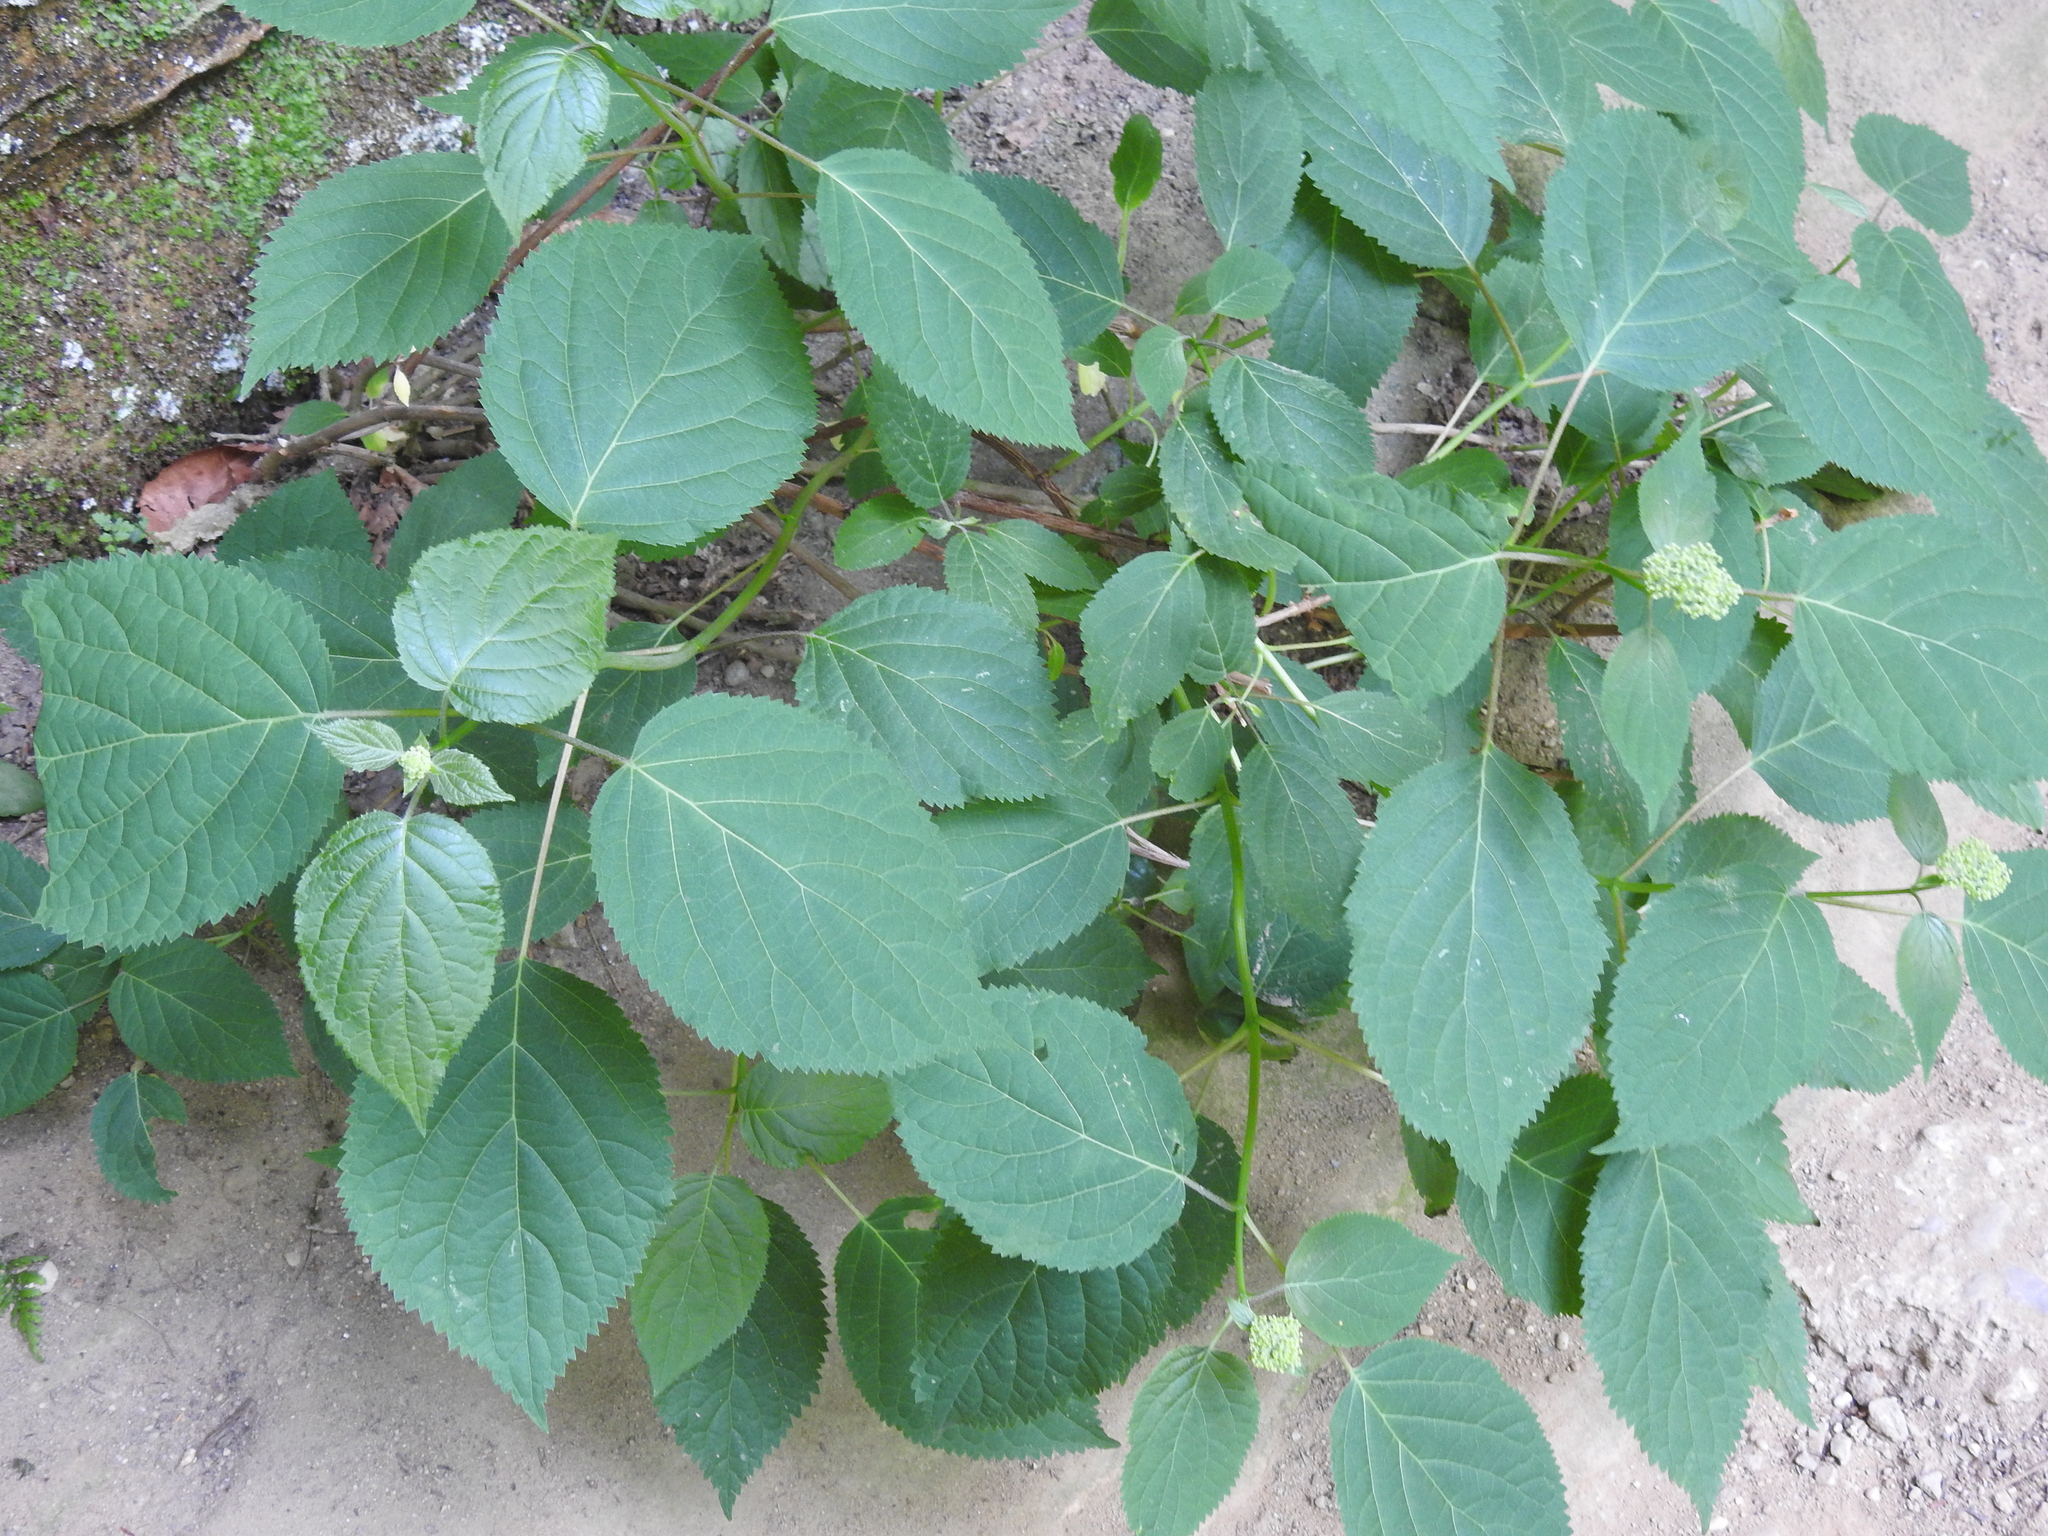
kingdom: Plantae
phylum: Tracheophyta
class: Magnoliopsida
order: Cornales
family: Hydrangeaceae
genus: Hydrangea
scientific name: Hydrangea arborescens
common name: Sevenbark
